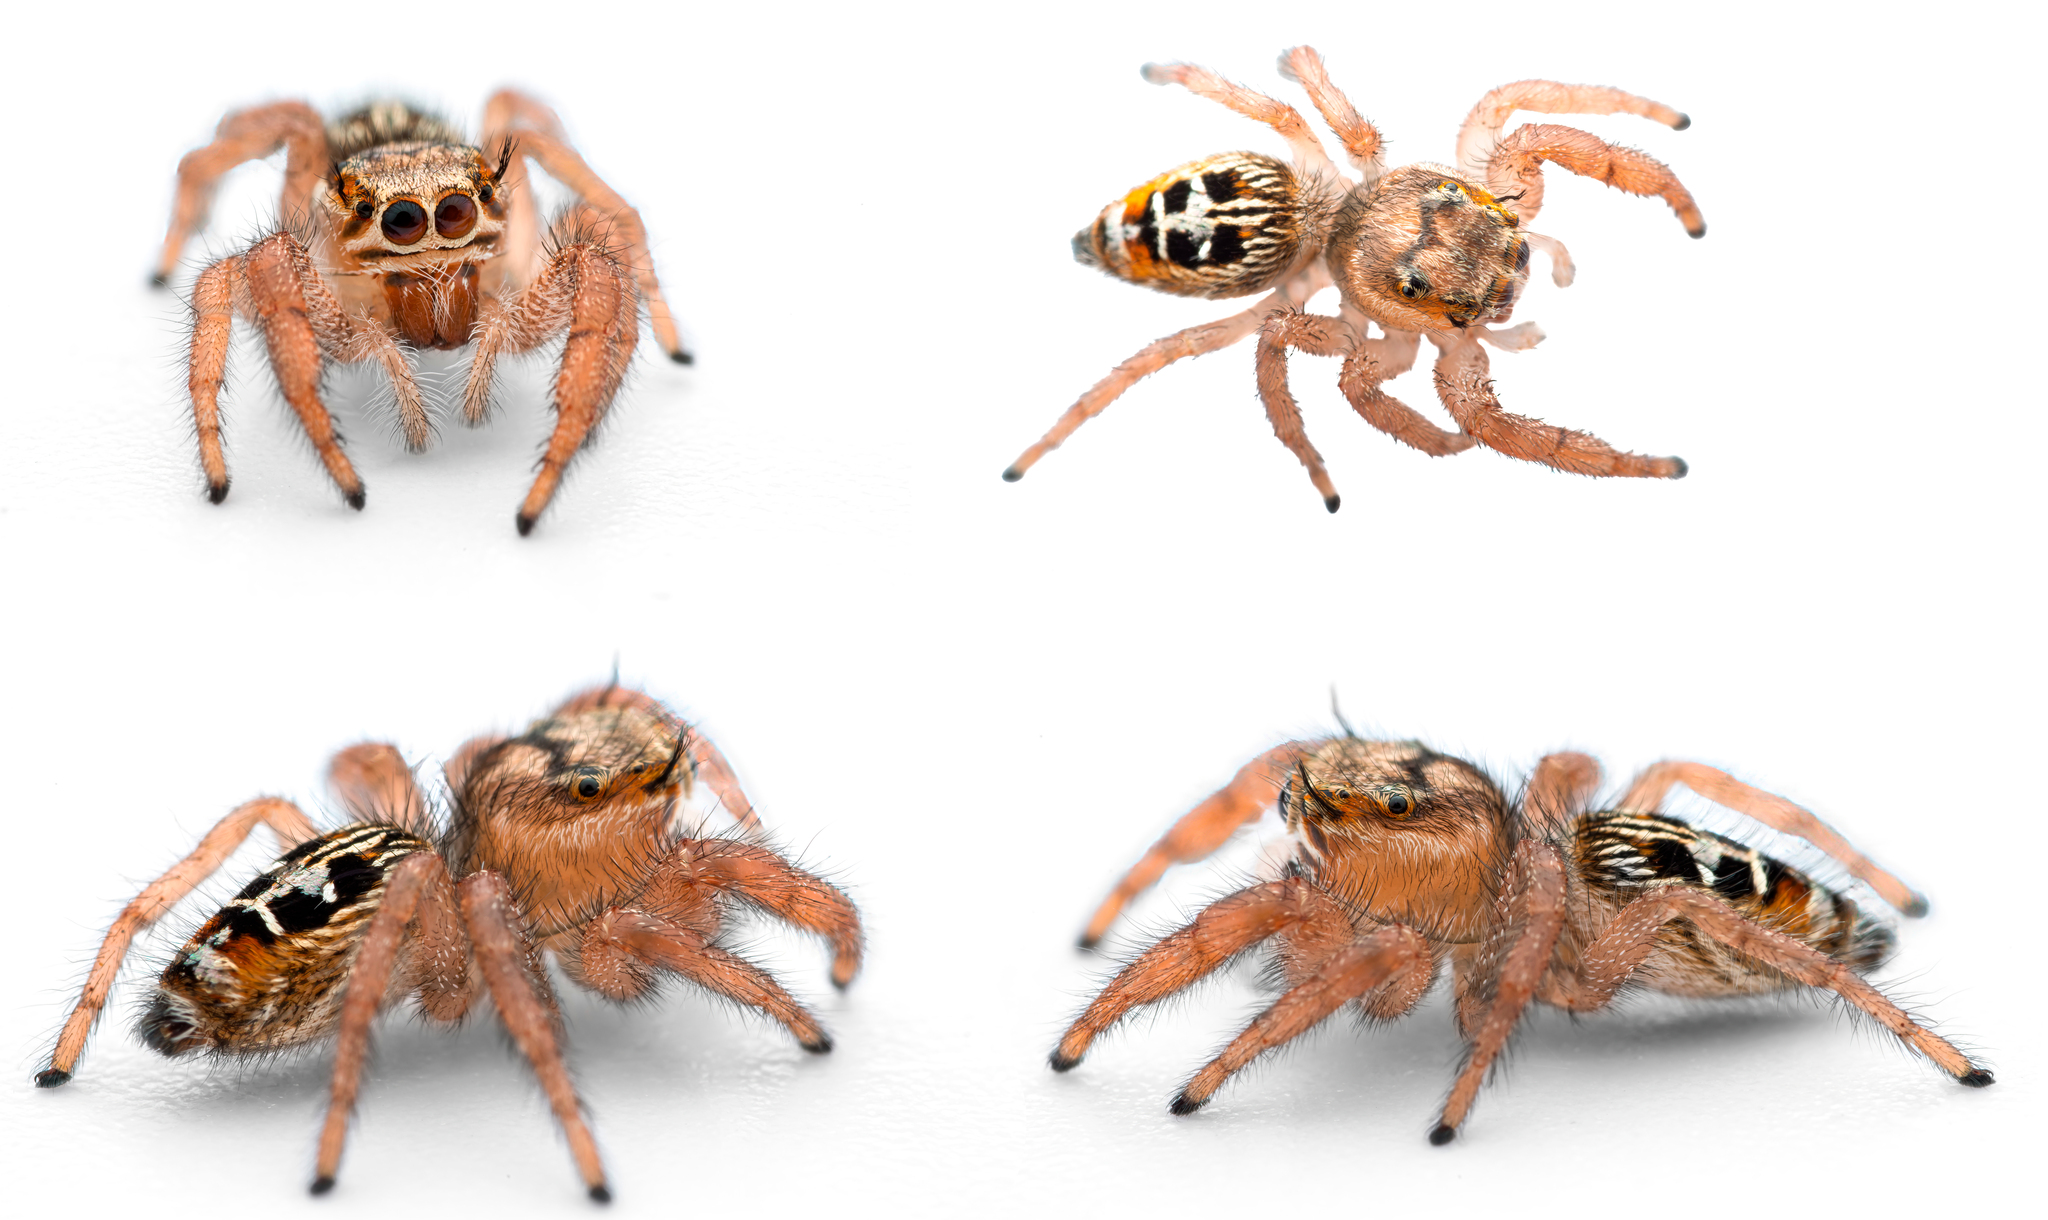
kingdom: Animalia
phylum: Arthropoda
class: Arachnida
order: Araneae
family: Salticidae
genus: Thyene
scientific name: Thyene imperialis
